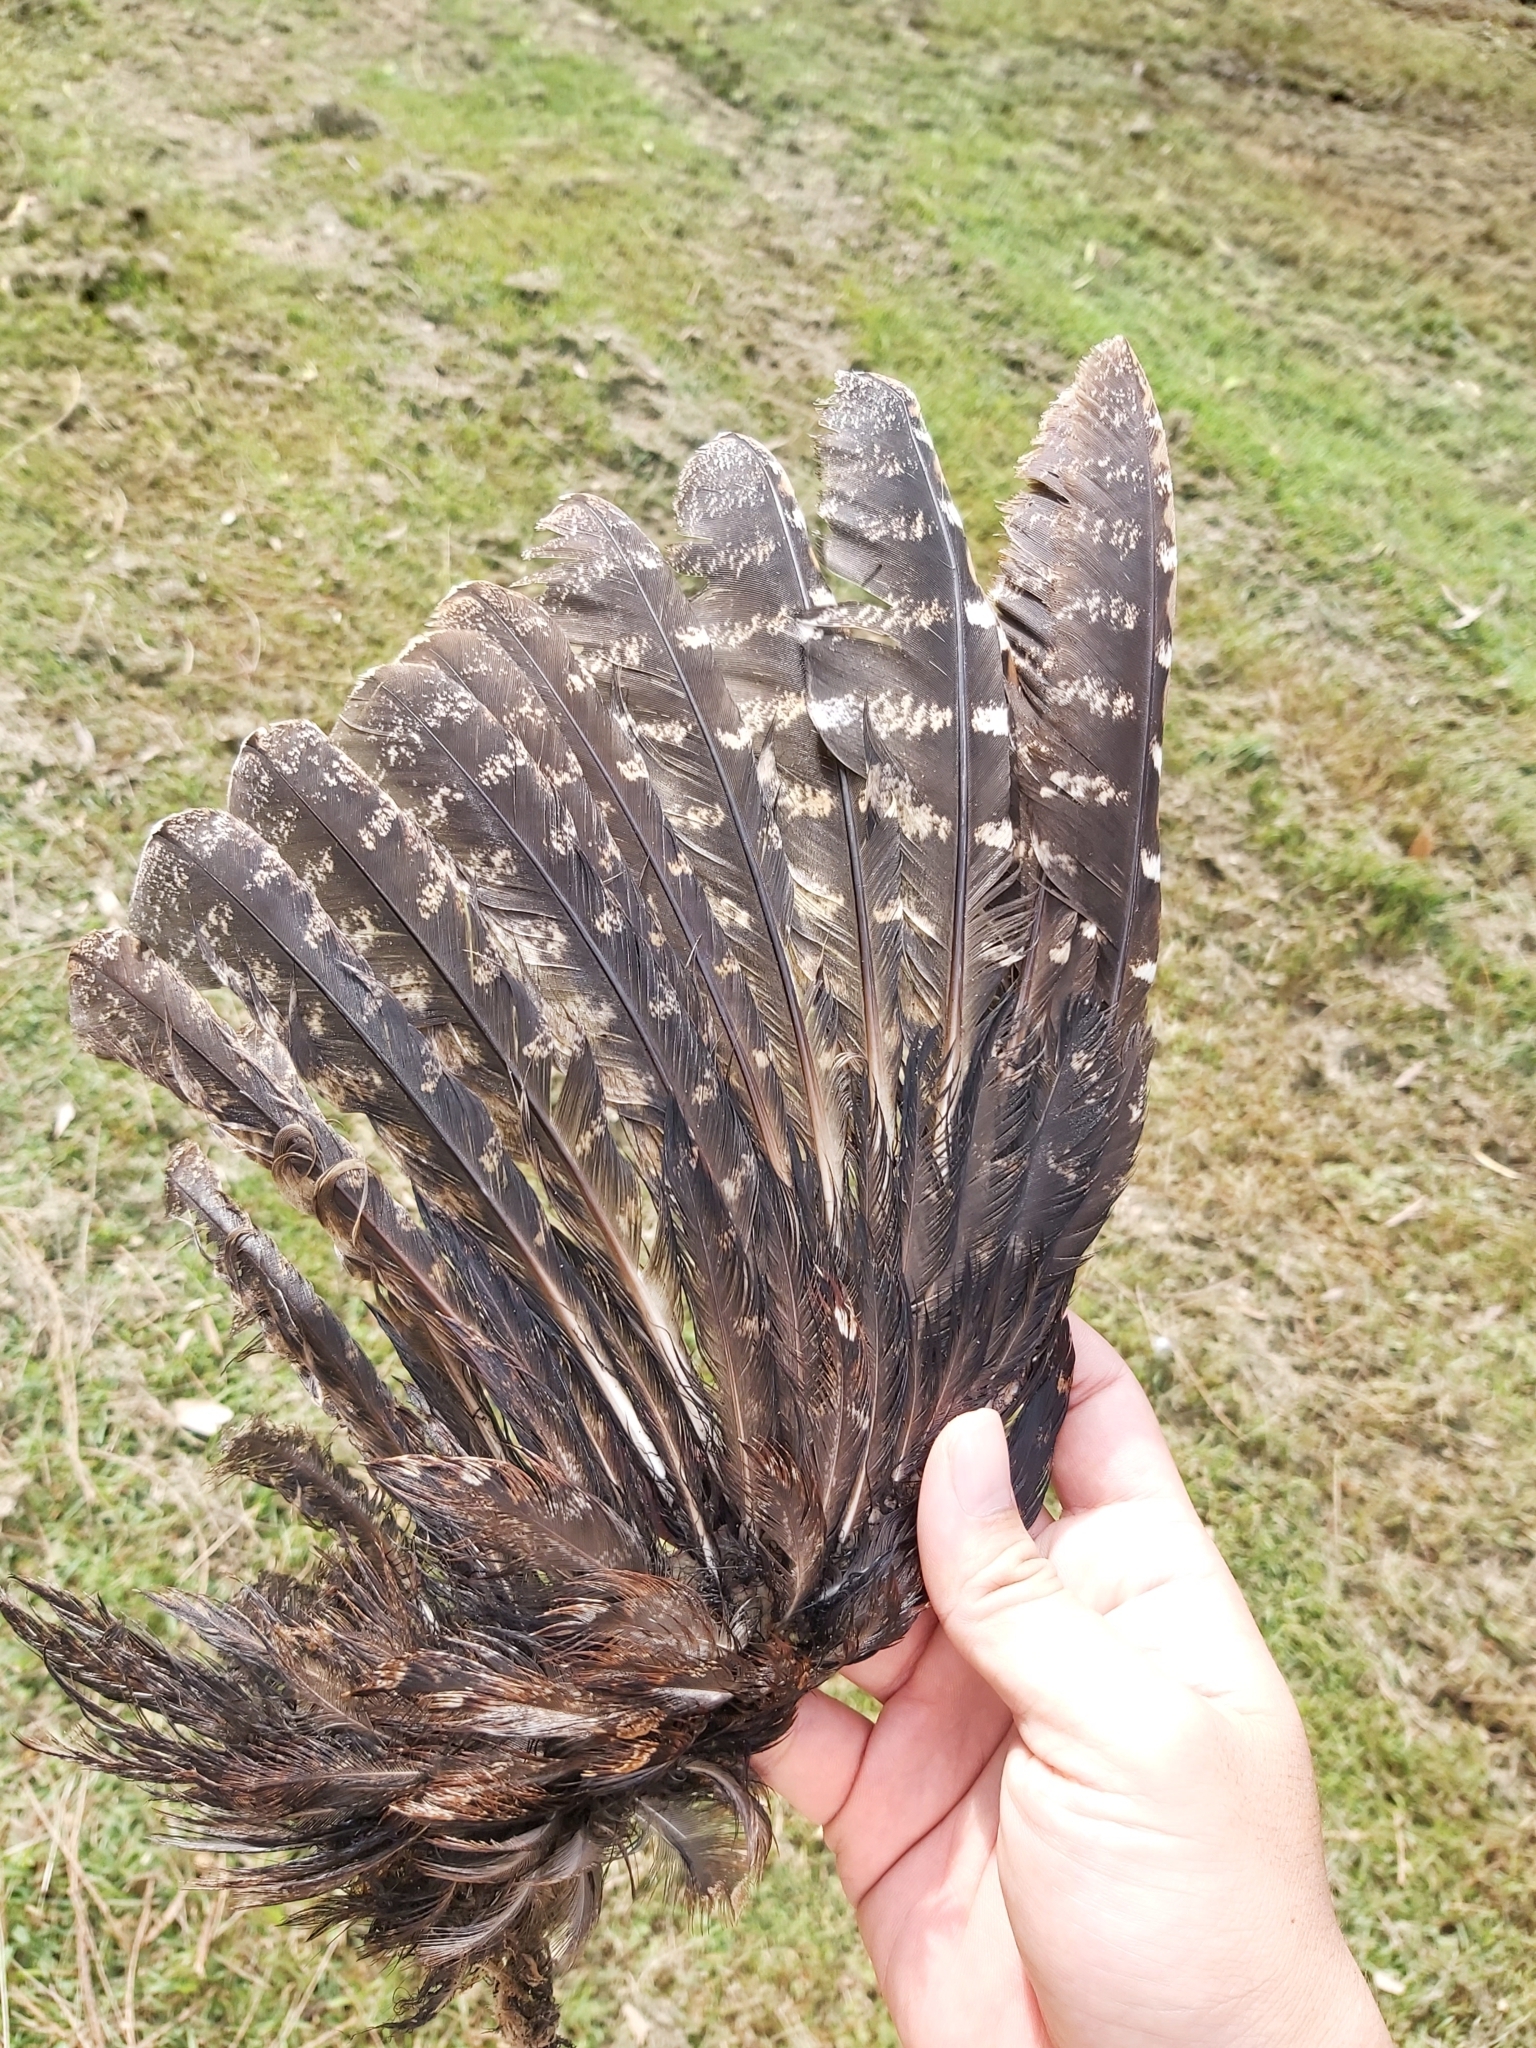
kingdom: Animalia
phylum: Chordata
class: Aves
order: Caprimulgiformes
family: Podargidae
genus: Podargus
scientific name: Podargus strigoides
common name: Tawny frogmouth
